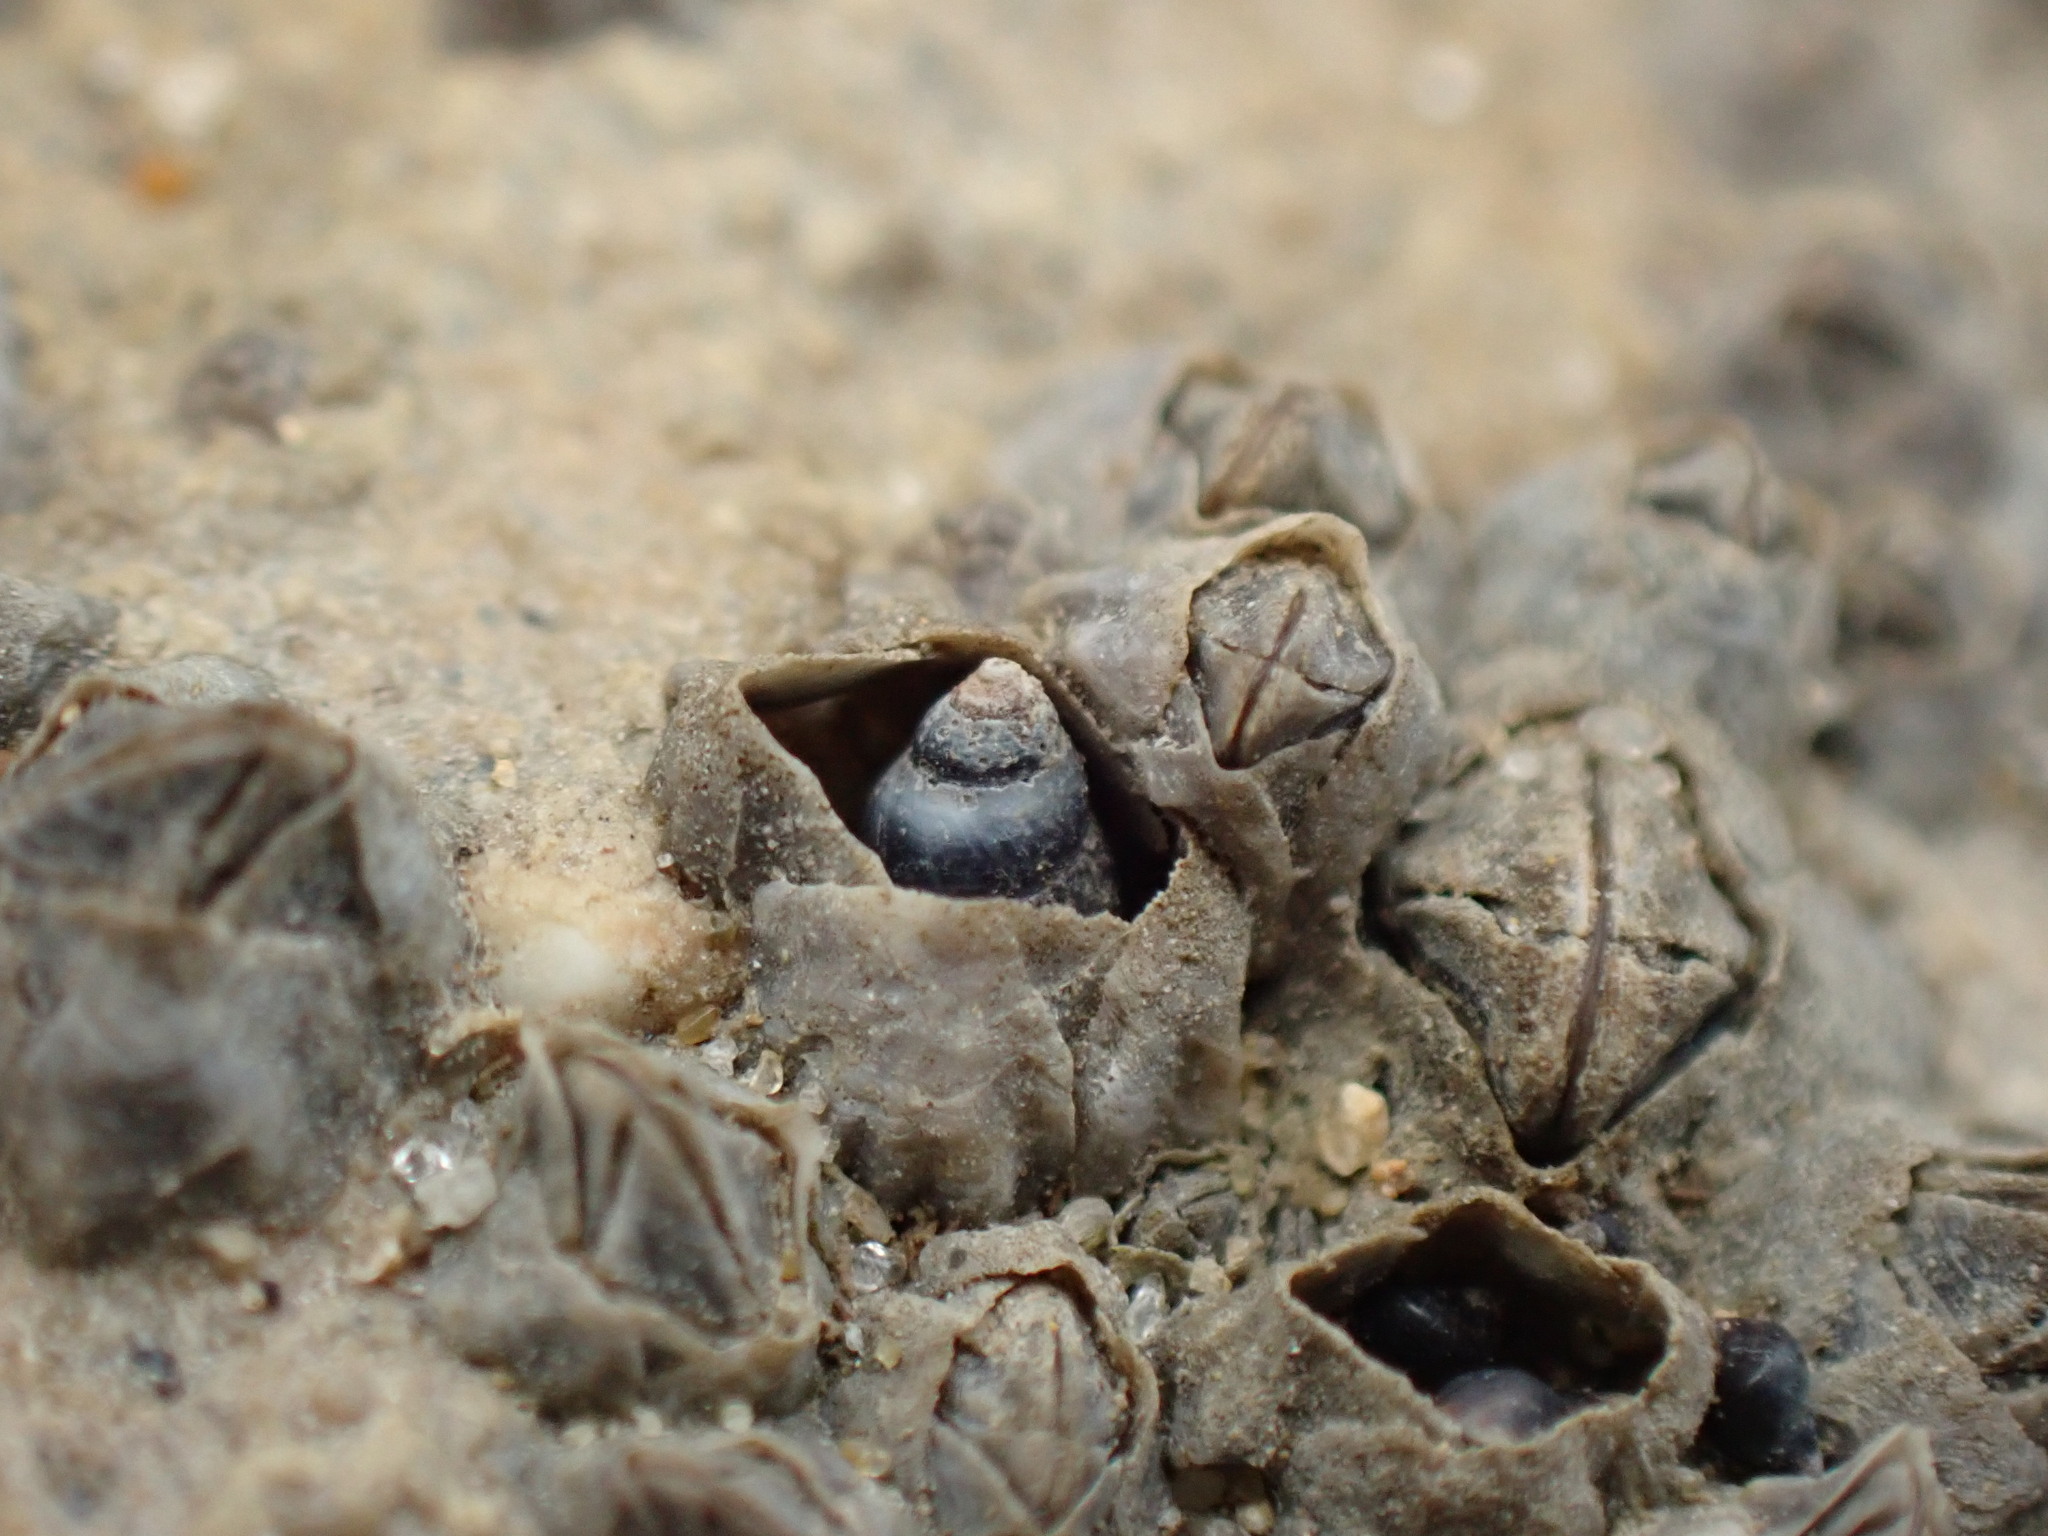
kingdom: Animalia
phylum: Mollusca
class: Gastropoda
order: Littorinimorpha
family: Littorinidae
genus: Austrolittorina
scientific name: Austrolittorina antipodum
